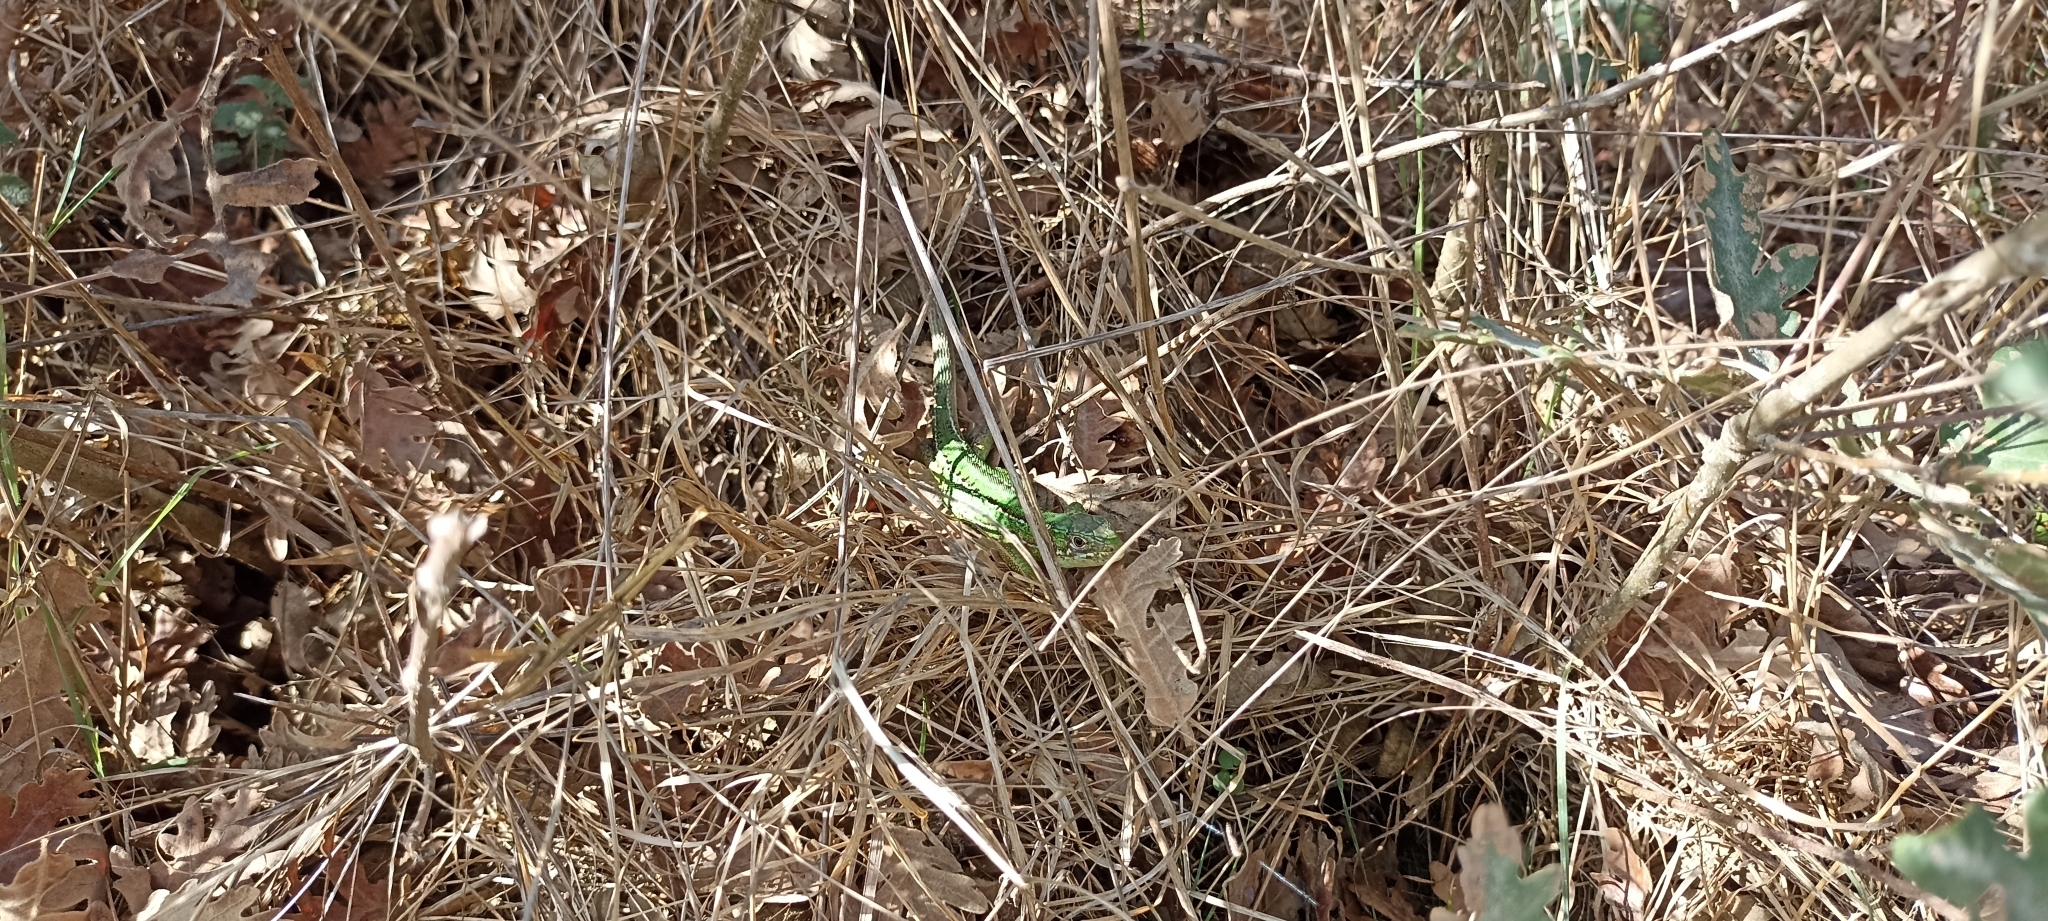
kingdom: Animalia
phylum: Chordata
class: Squamata
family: Lacertidae
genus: Lacerta
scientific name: Lacerta bilineata
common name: Western green lizard
